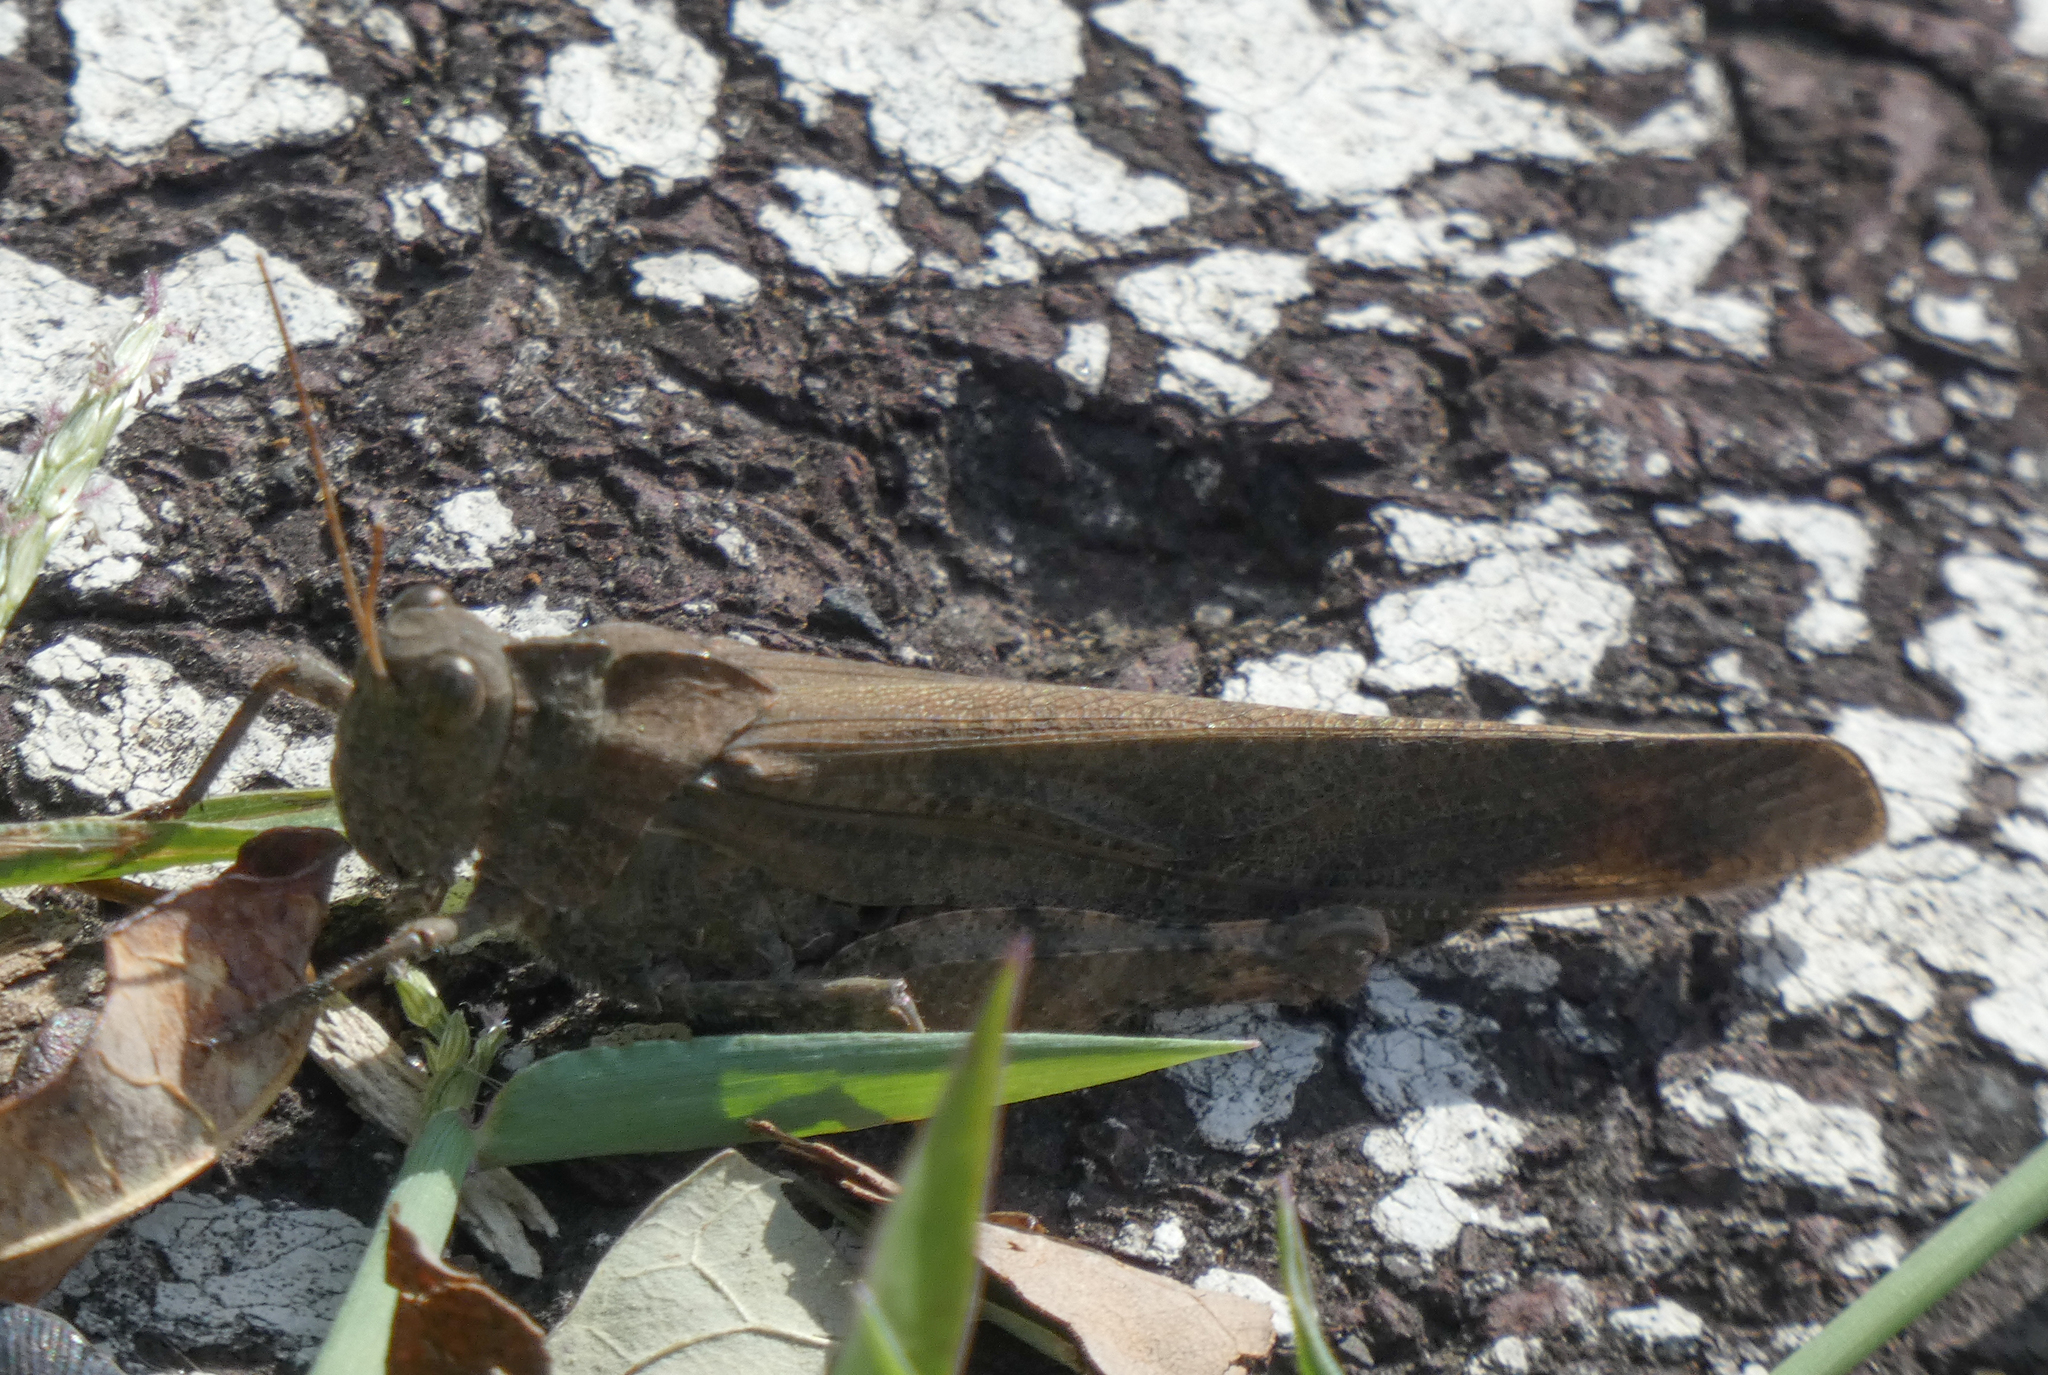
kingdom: Animalia
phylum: Arthropoda
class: Insecta
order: Orthoptera
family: Acrididae
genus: Dissosteira
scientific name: Dissosteira carolina
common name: Carolina grasshopper
